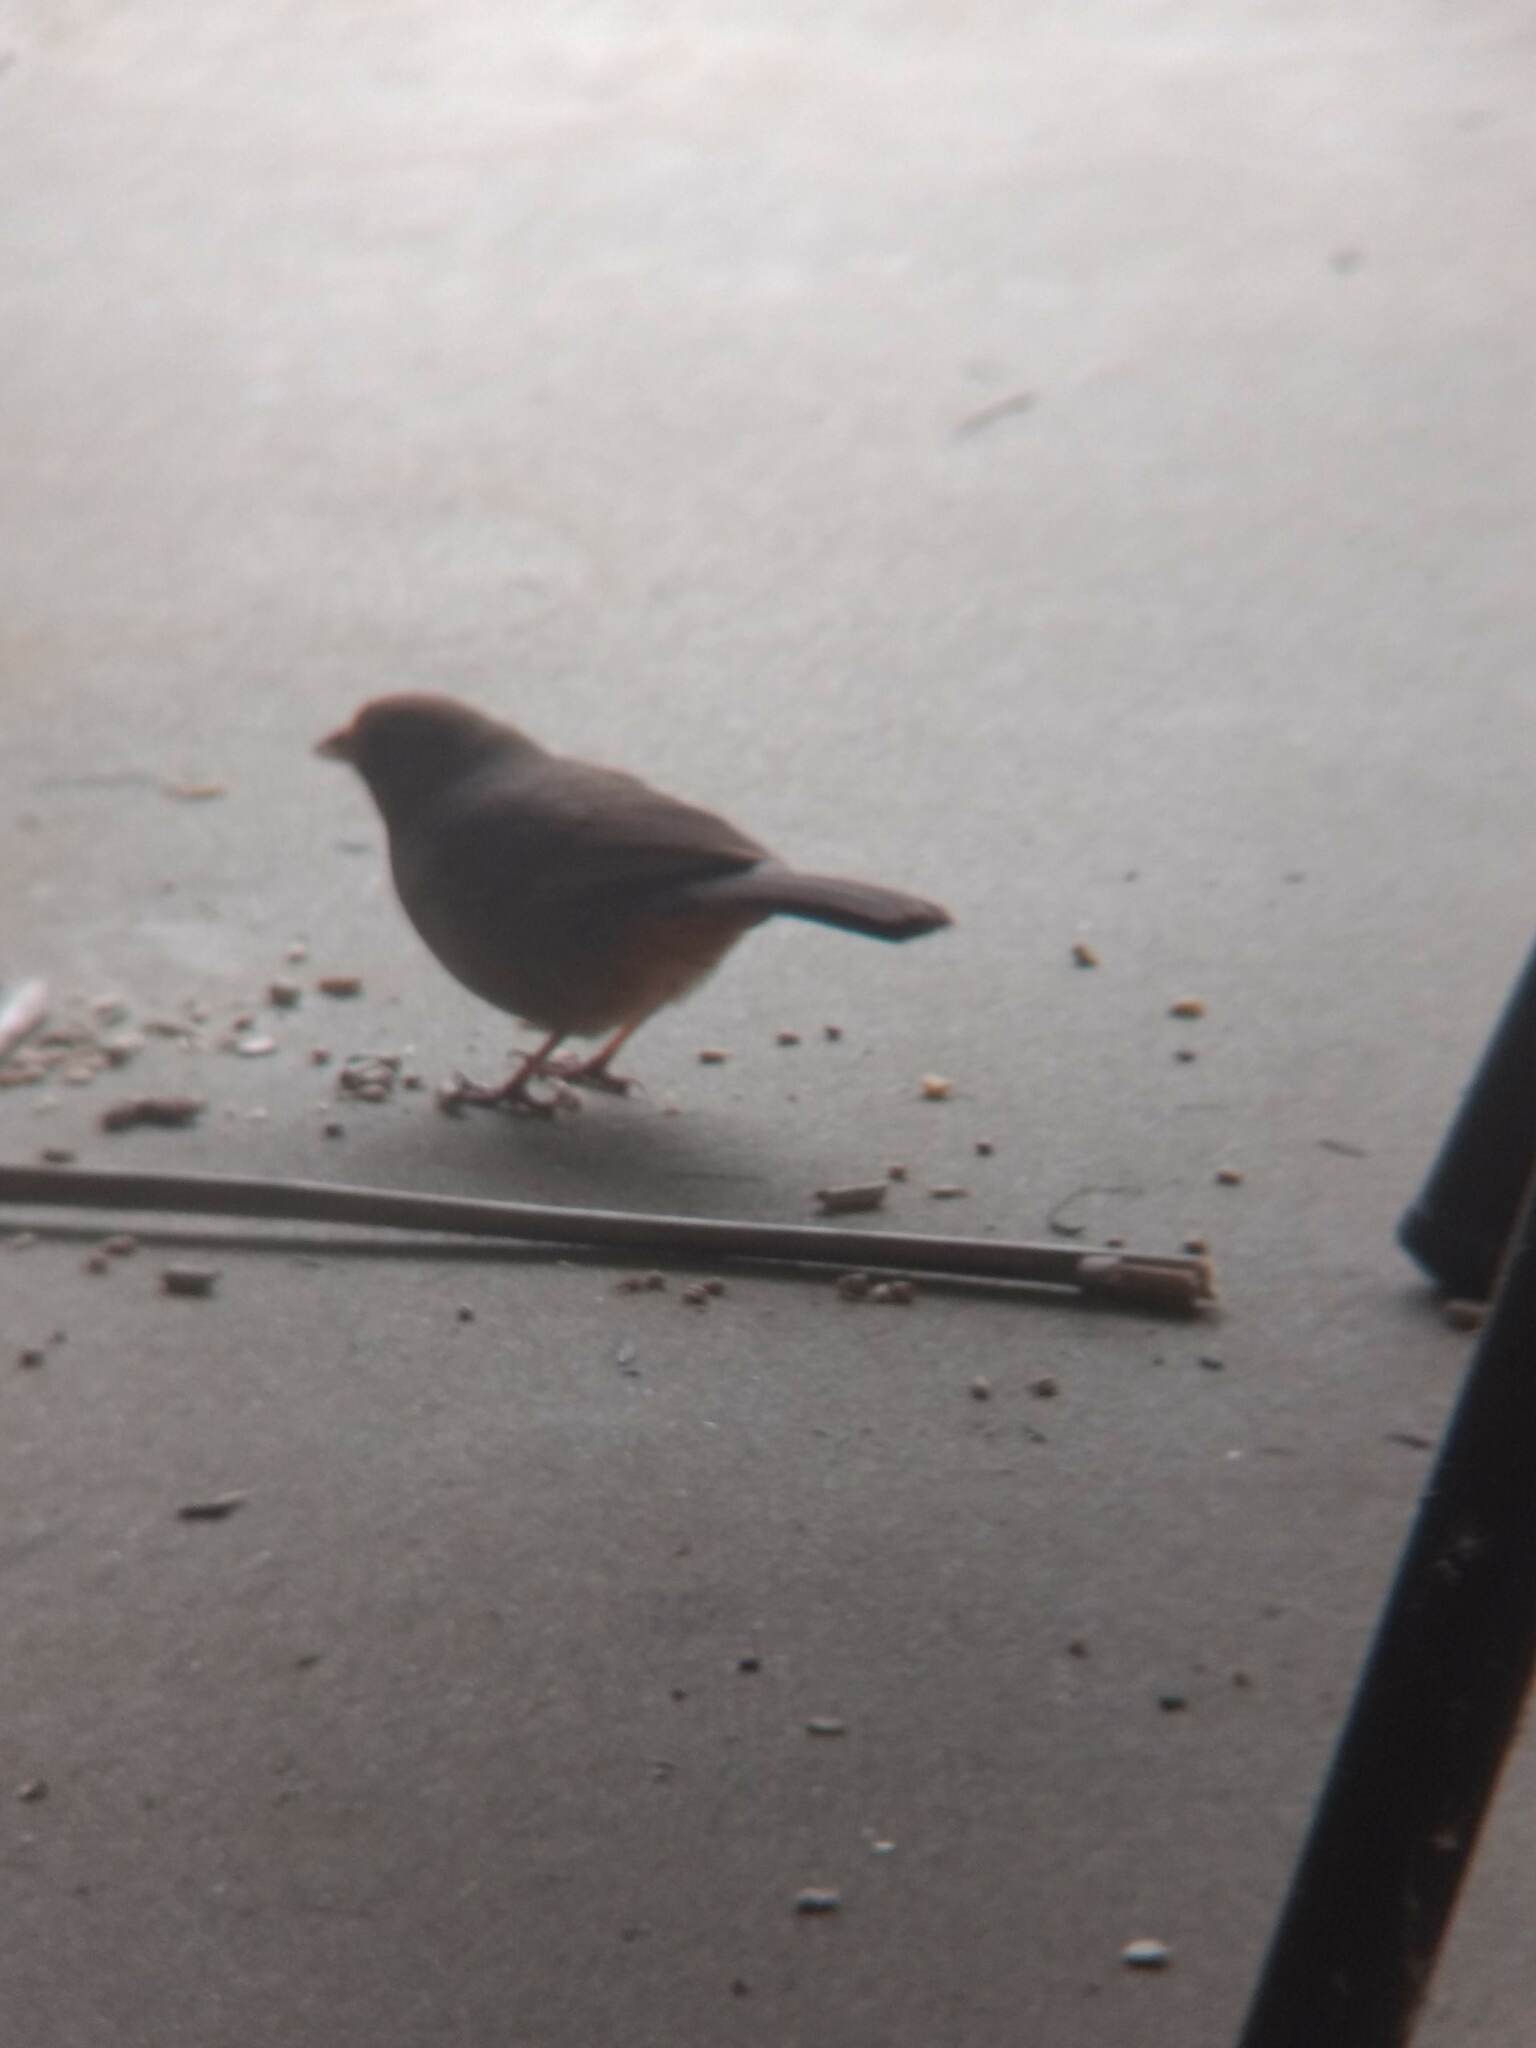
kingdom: Animalia
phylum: Chordata
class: Aves
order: Passeriformes
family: Passerellidae
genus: Melozone
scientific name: Melozone crissalis
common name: California towhee
